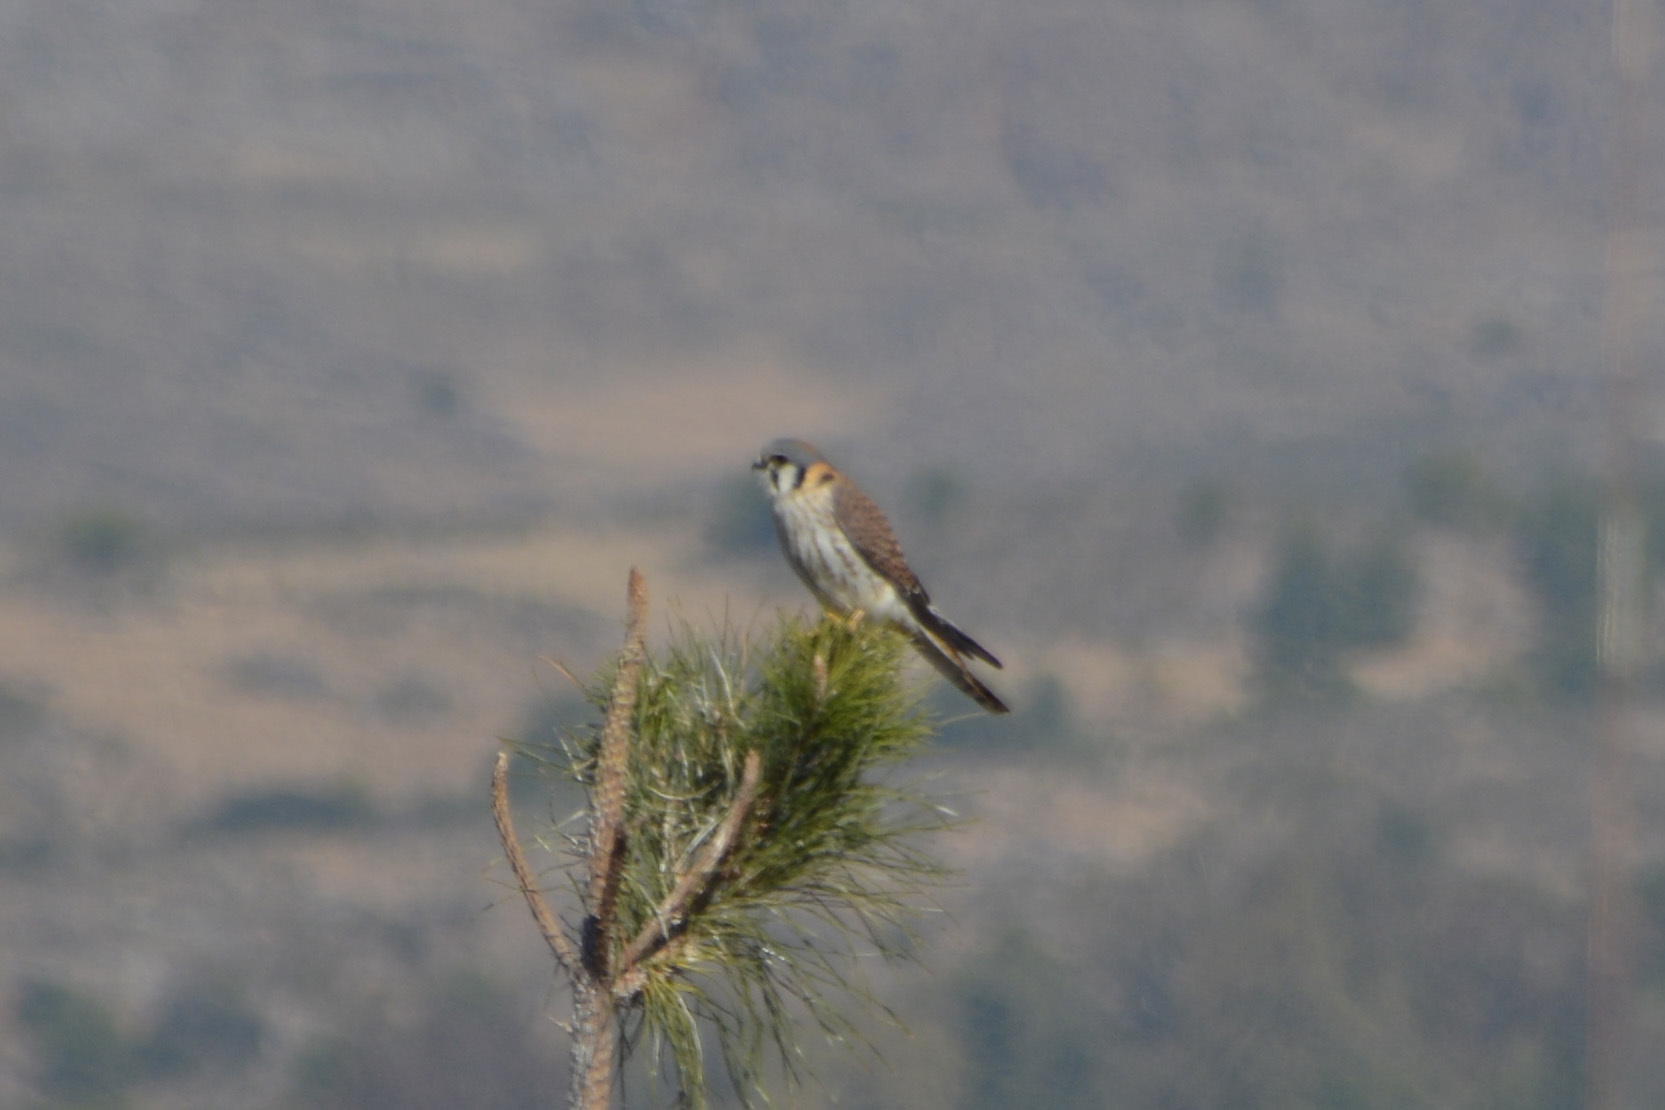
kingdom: Animalia
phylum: Chordata
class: Aves
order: Falconiformes
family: Falconidae
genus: Falco
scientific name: Falco sparverius
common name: American kestrel
